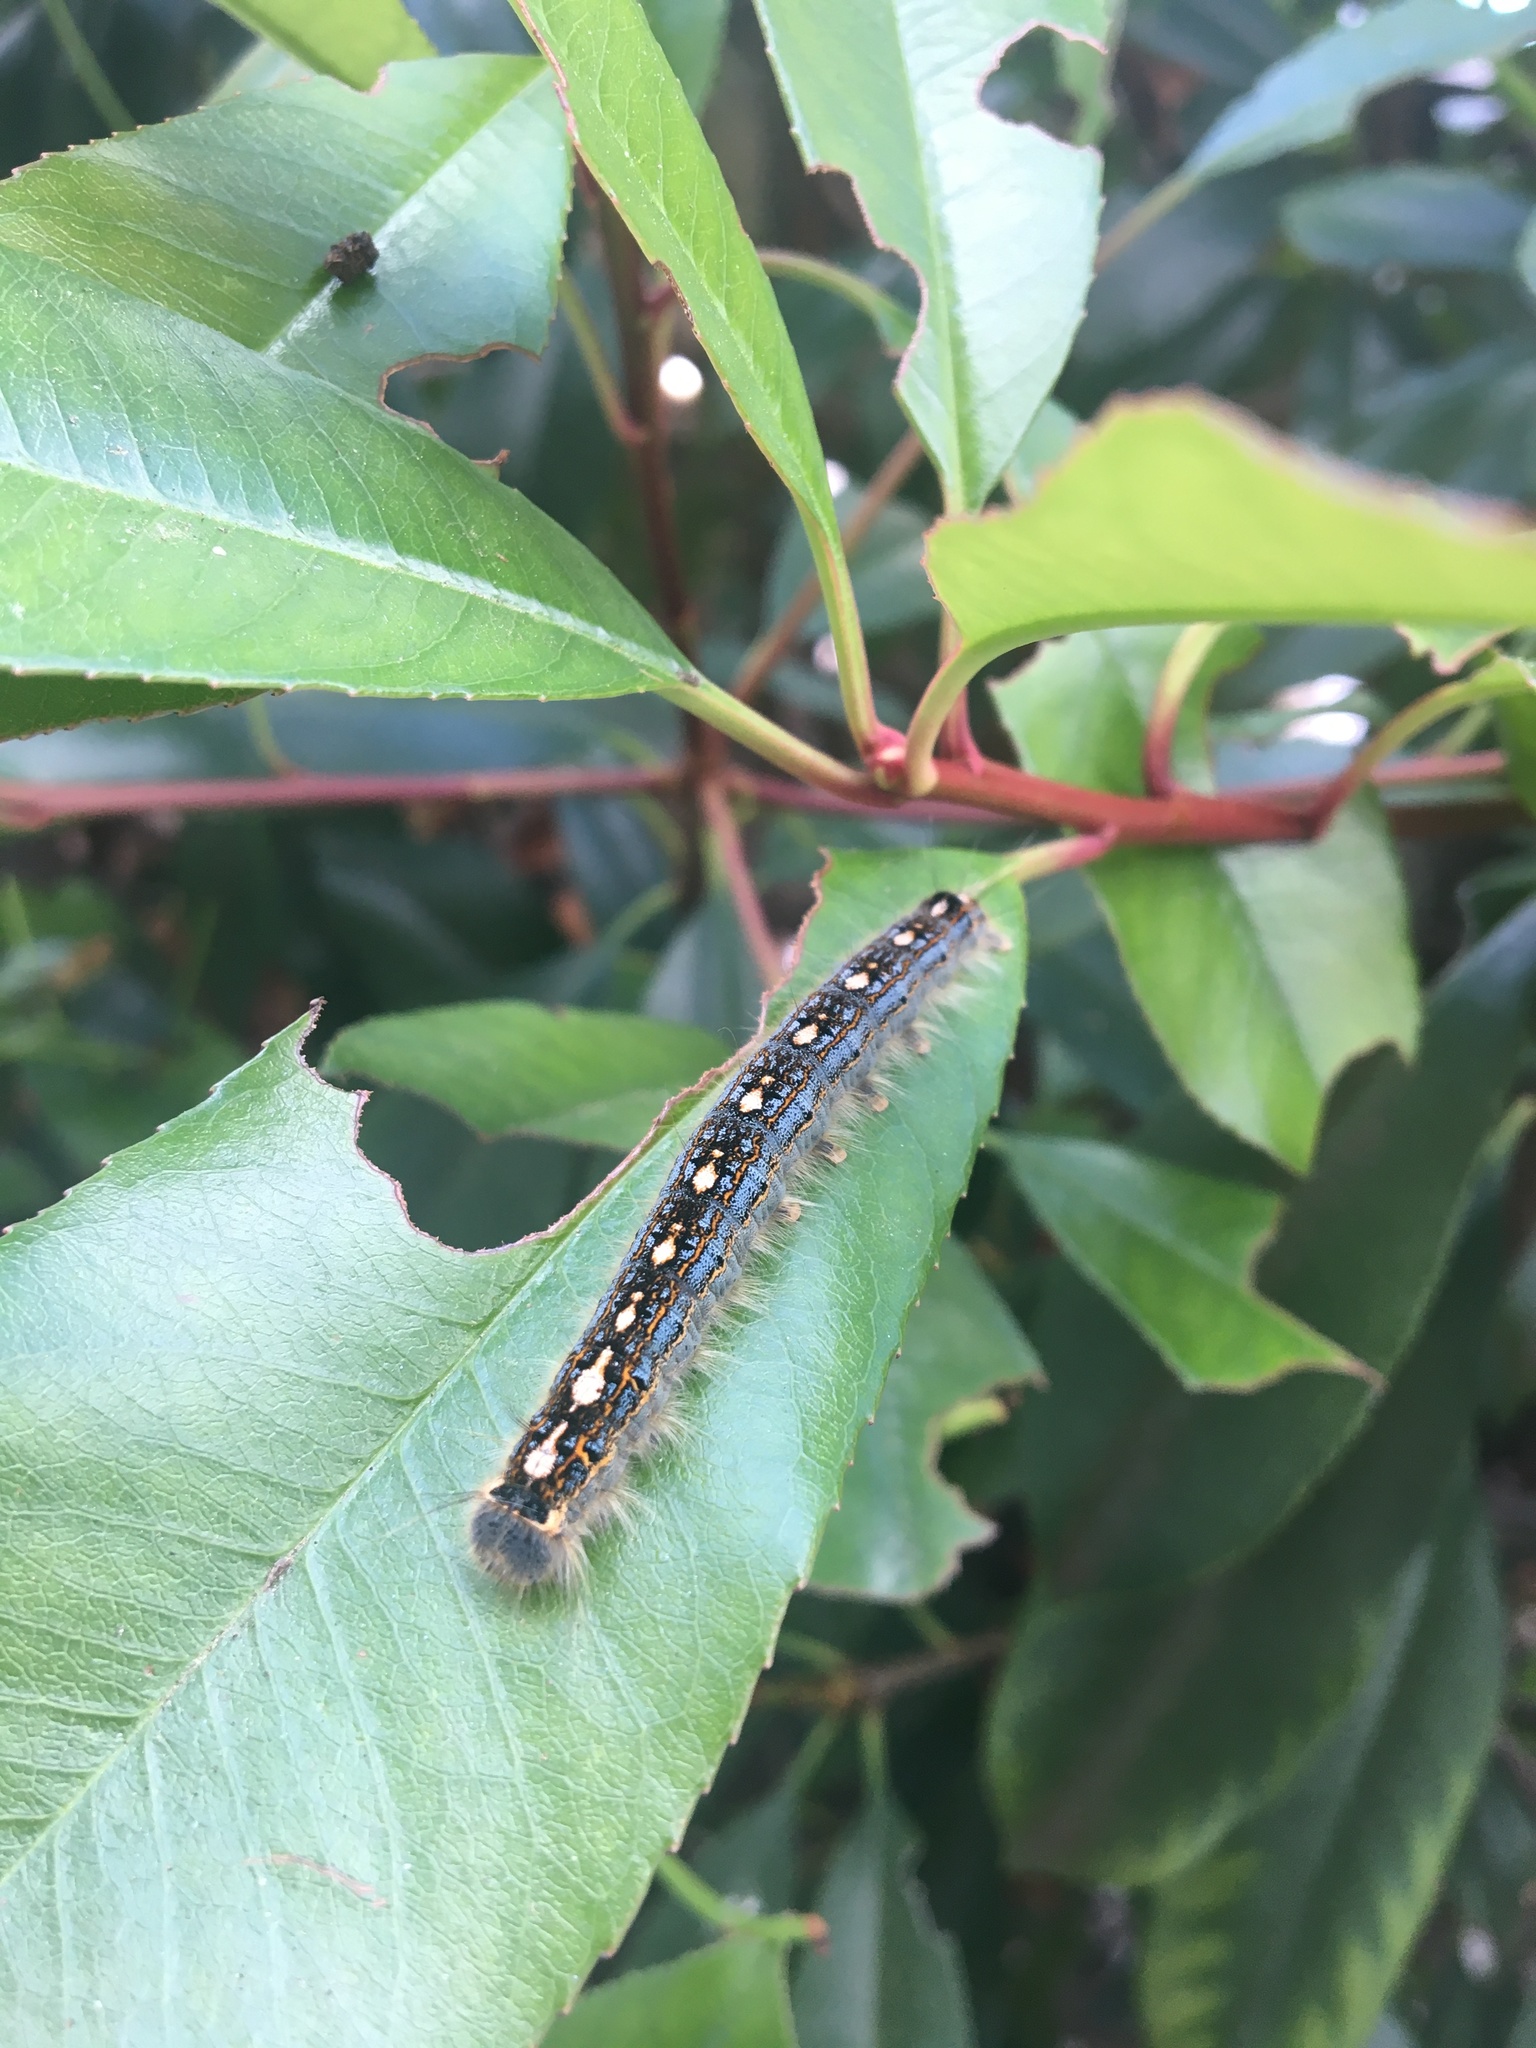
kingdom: Animalia
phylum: Arthropoda
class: Insecta
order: Lepidoptera
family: Lasiocampidae
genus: Malacosoma
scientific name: Malacosoma disstria
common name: Forest tent caterpillar
